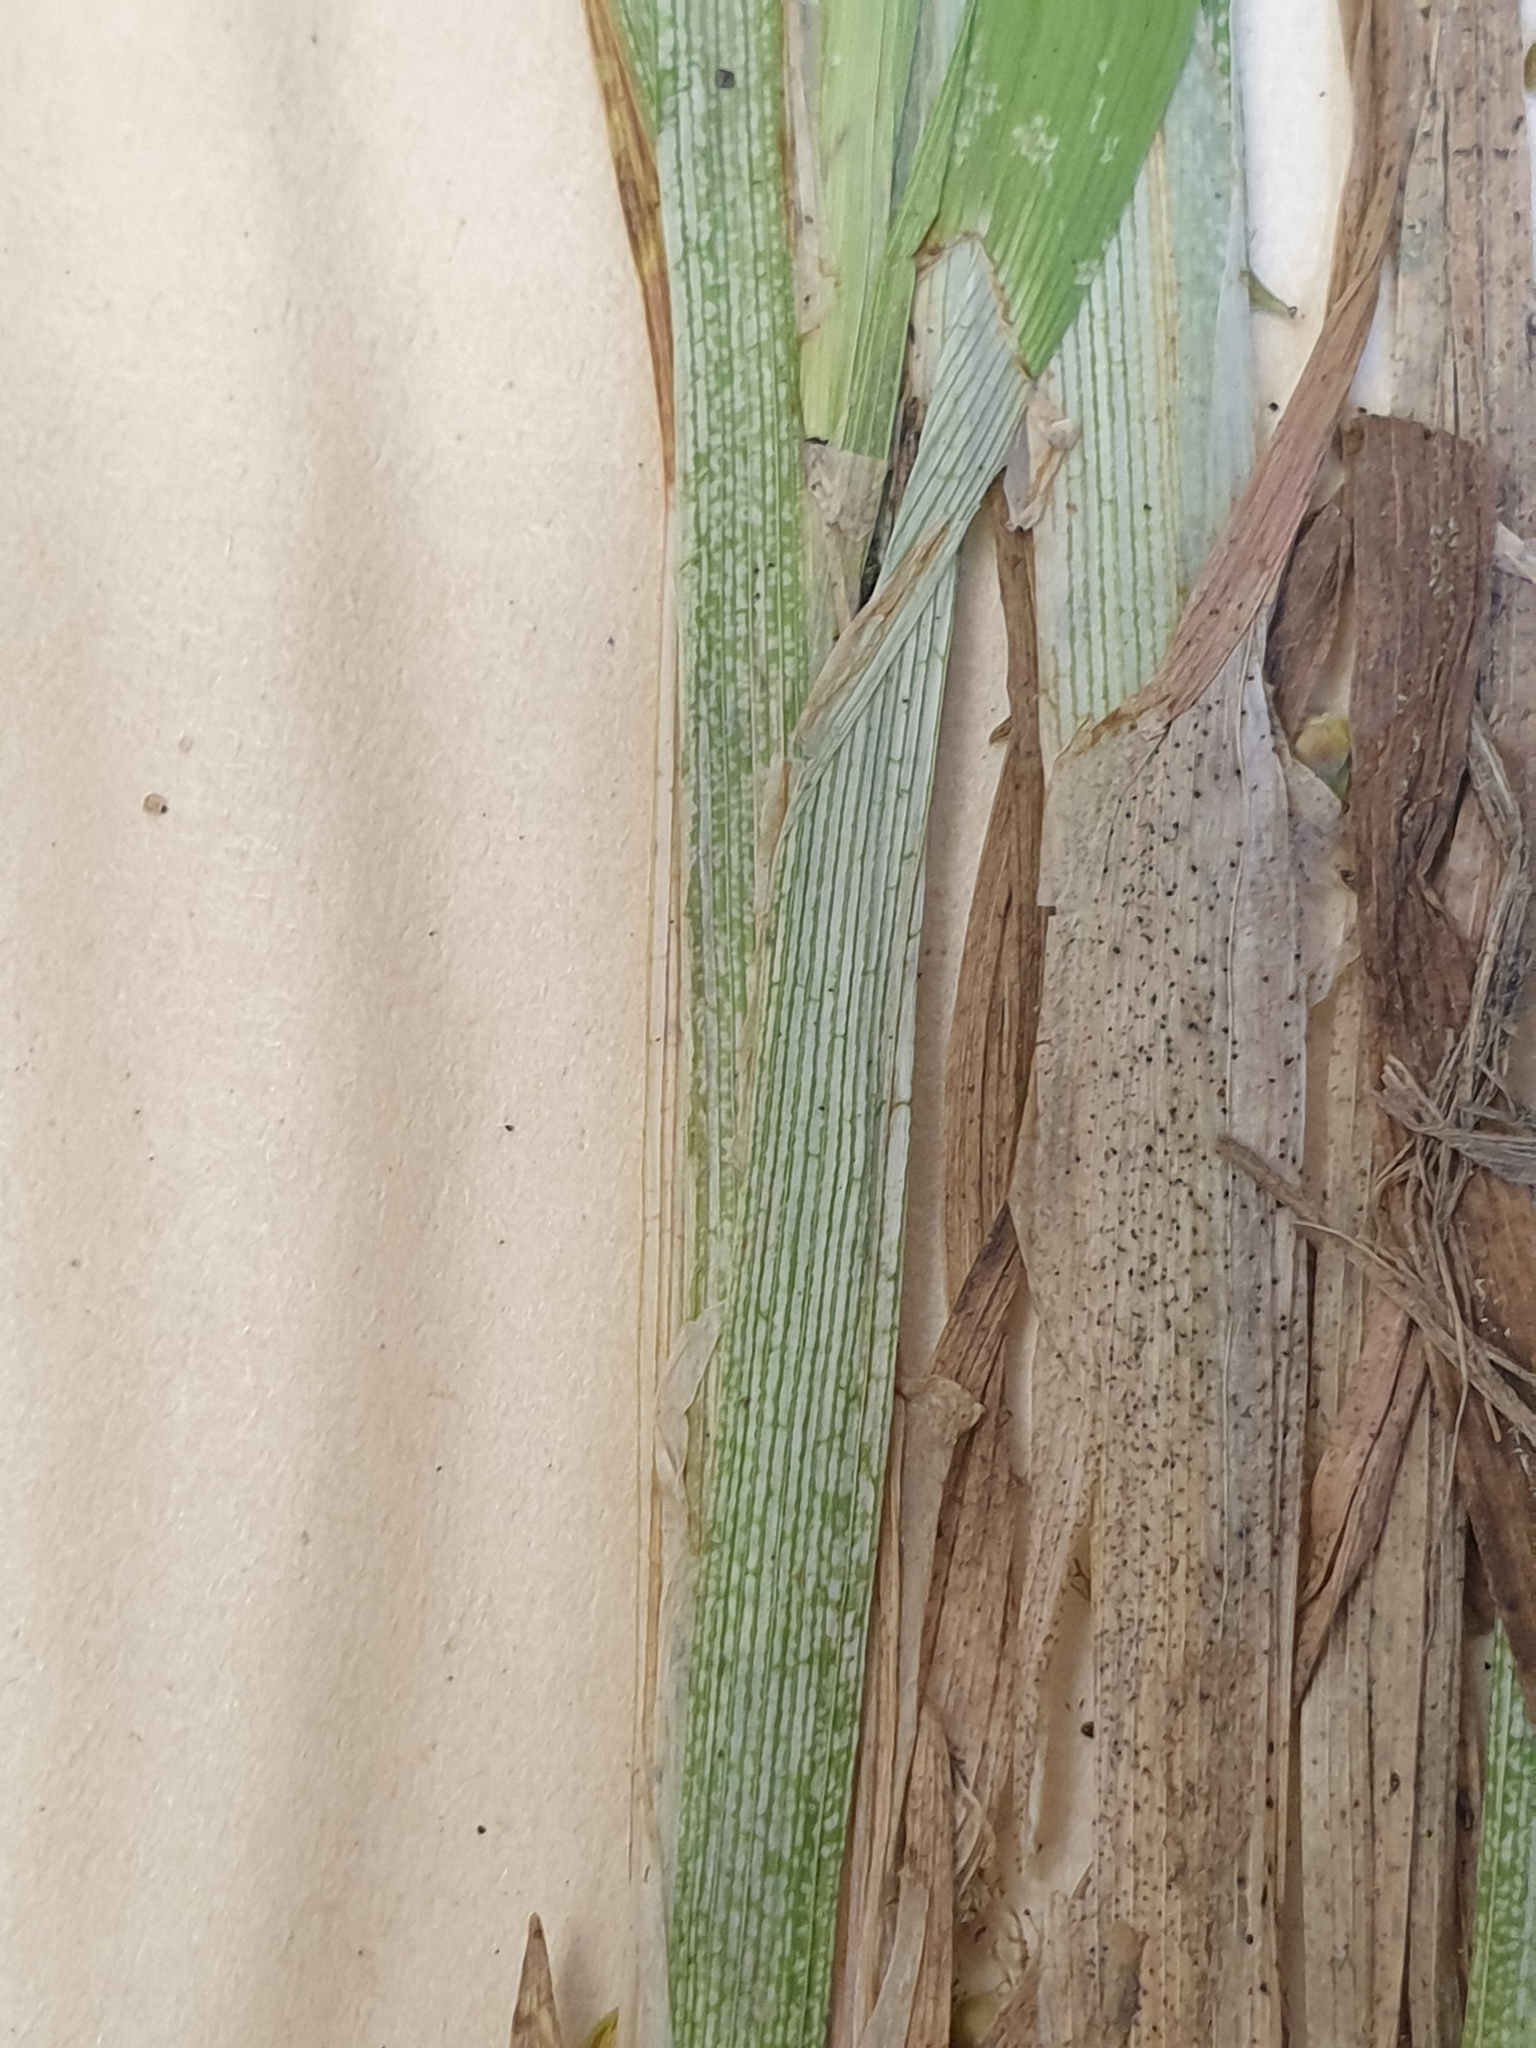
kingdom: Plantae
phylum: Tracheophyta
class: Liliopsida
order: Poales
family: Cyperaceae
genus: Carex
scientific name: Carex cephaloidea
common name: Thin-leaved sedge
